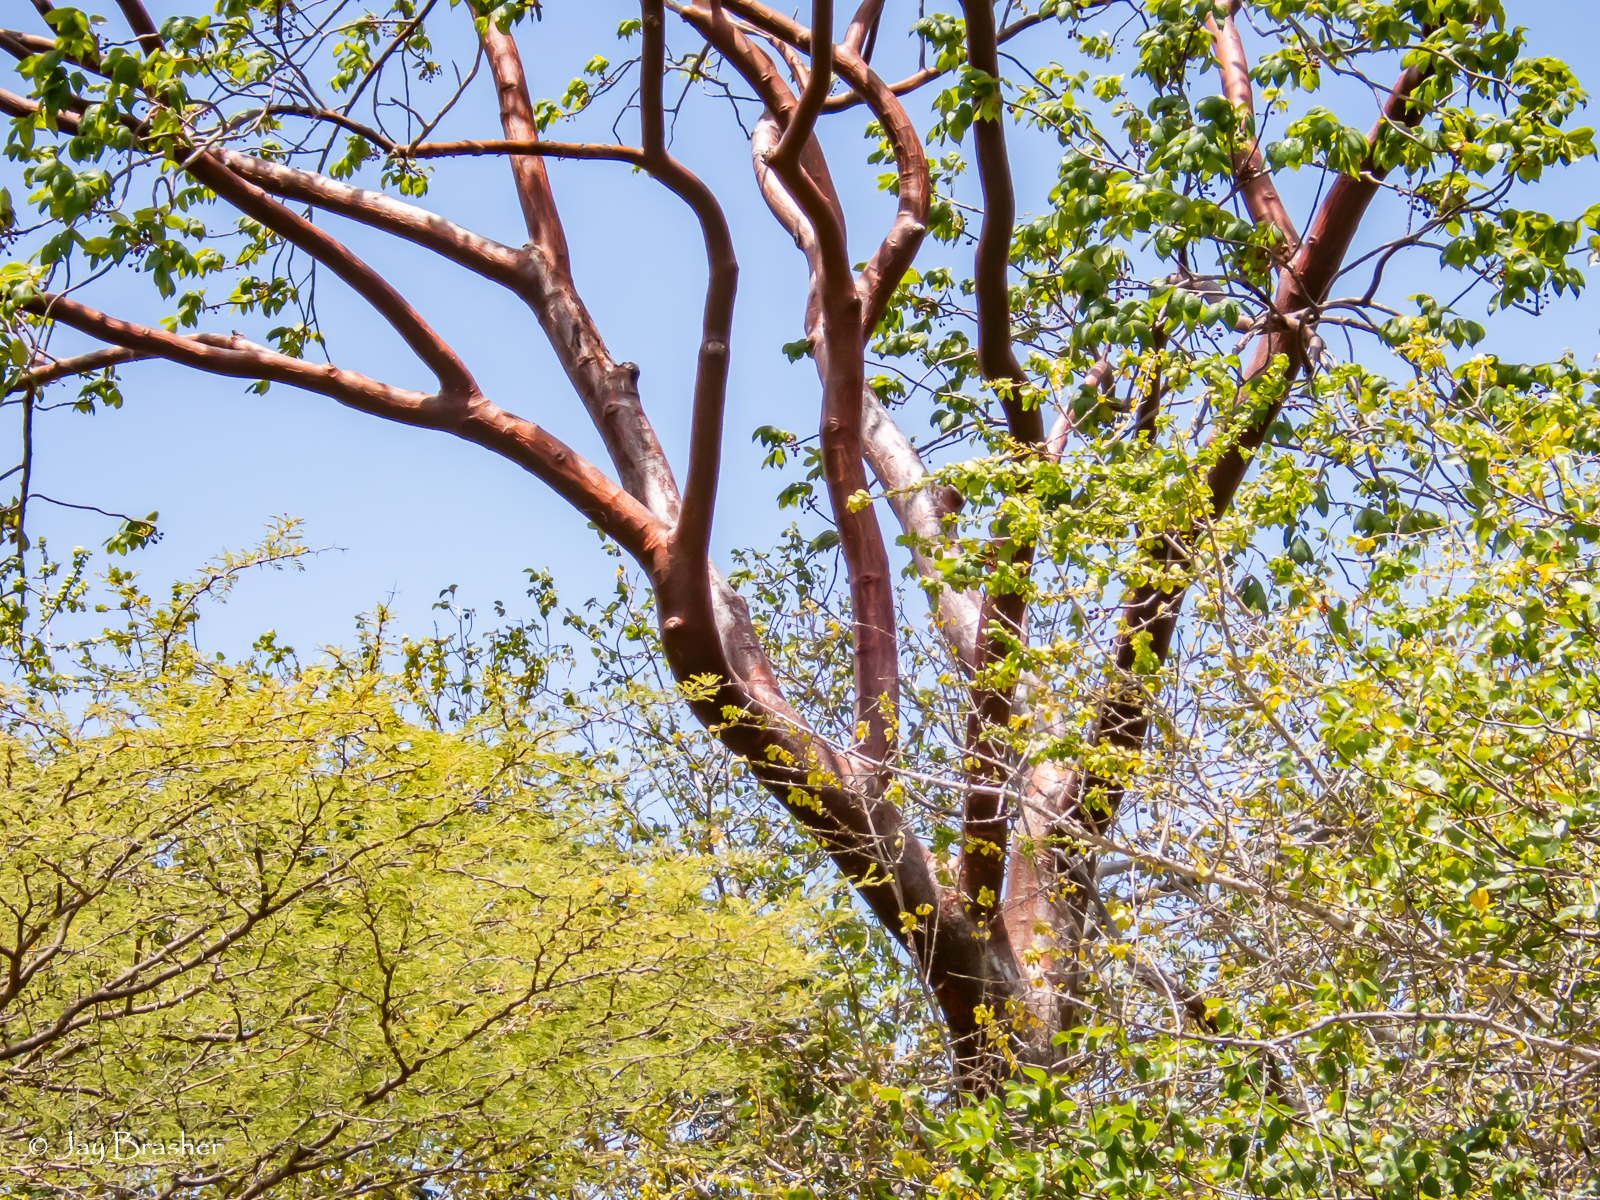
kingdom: Plantae
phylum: Tracheophyta
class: Magnoliopsida
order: Sapindales
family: Burseraceae
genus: Bursera
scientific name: Bursera simaruba
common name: Turpentine tree
